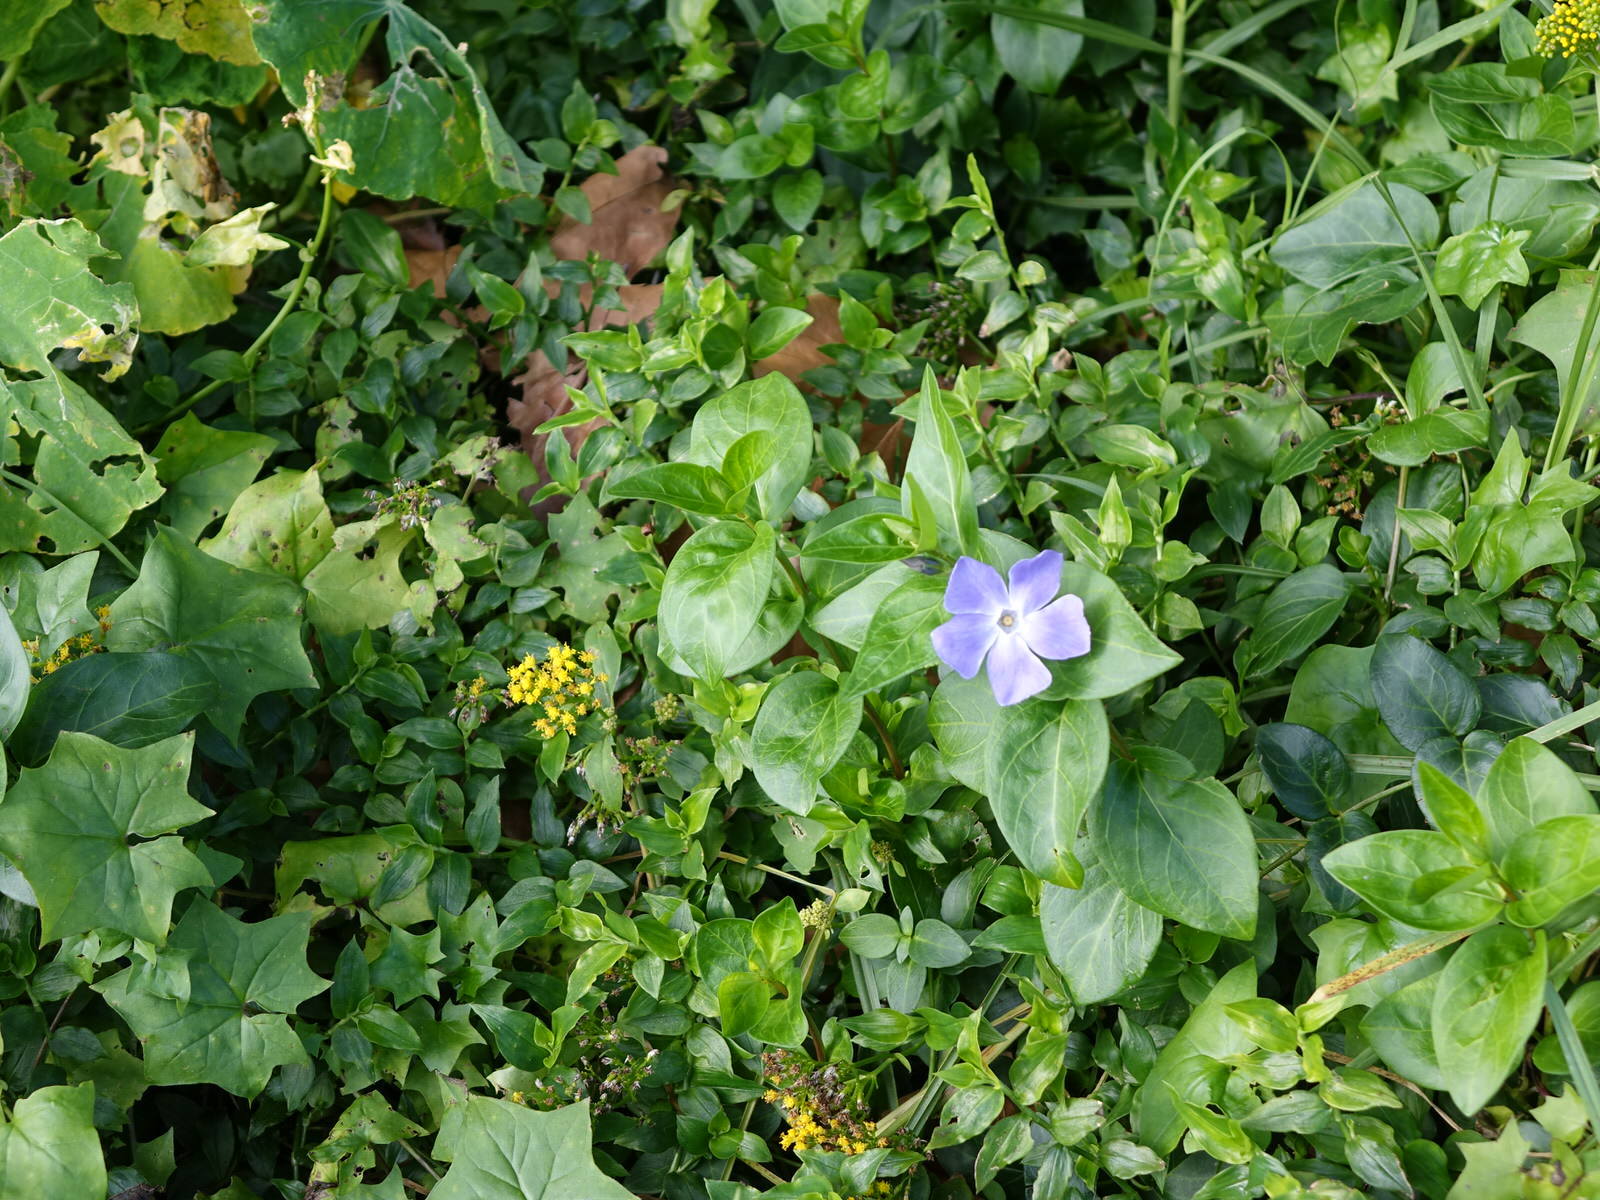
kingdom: Plantae
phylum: Tracheophyta
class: Magnoliopsida
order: Gentianales
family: Apocynaceae
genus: Vinca
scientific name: Vinca major
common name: Greater periwinkle
